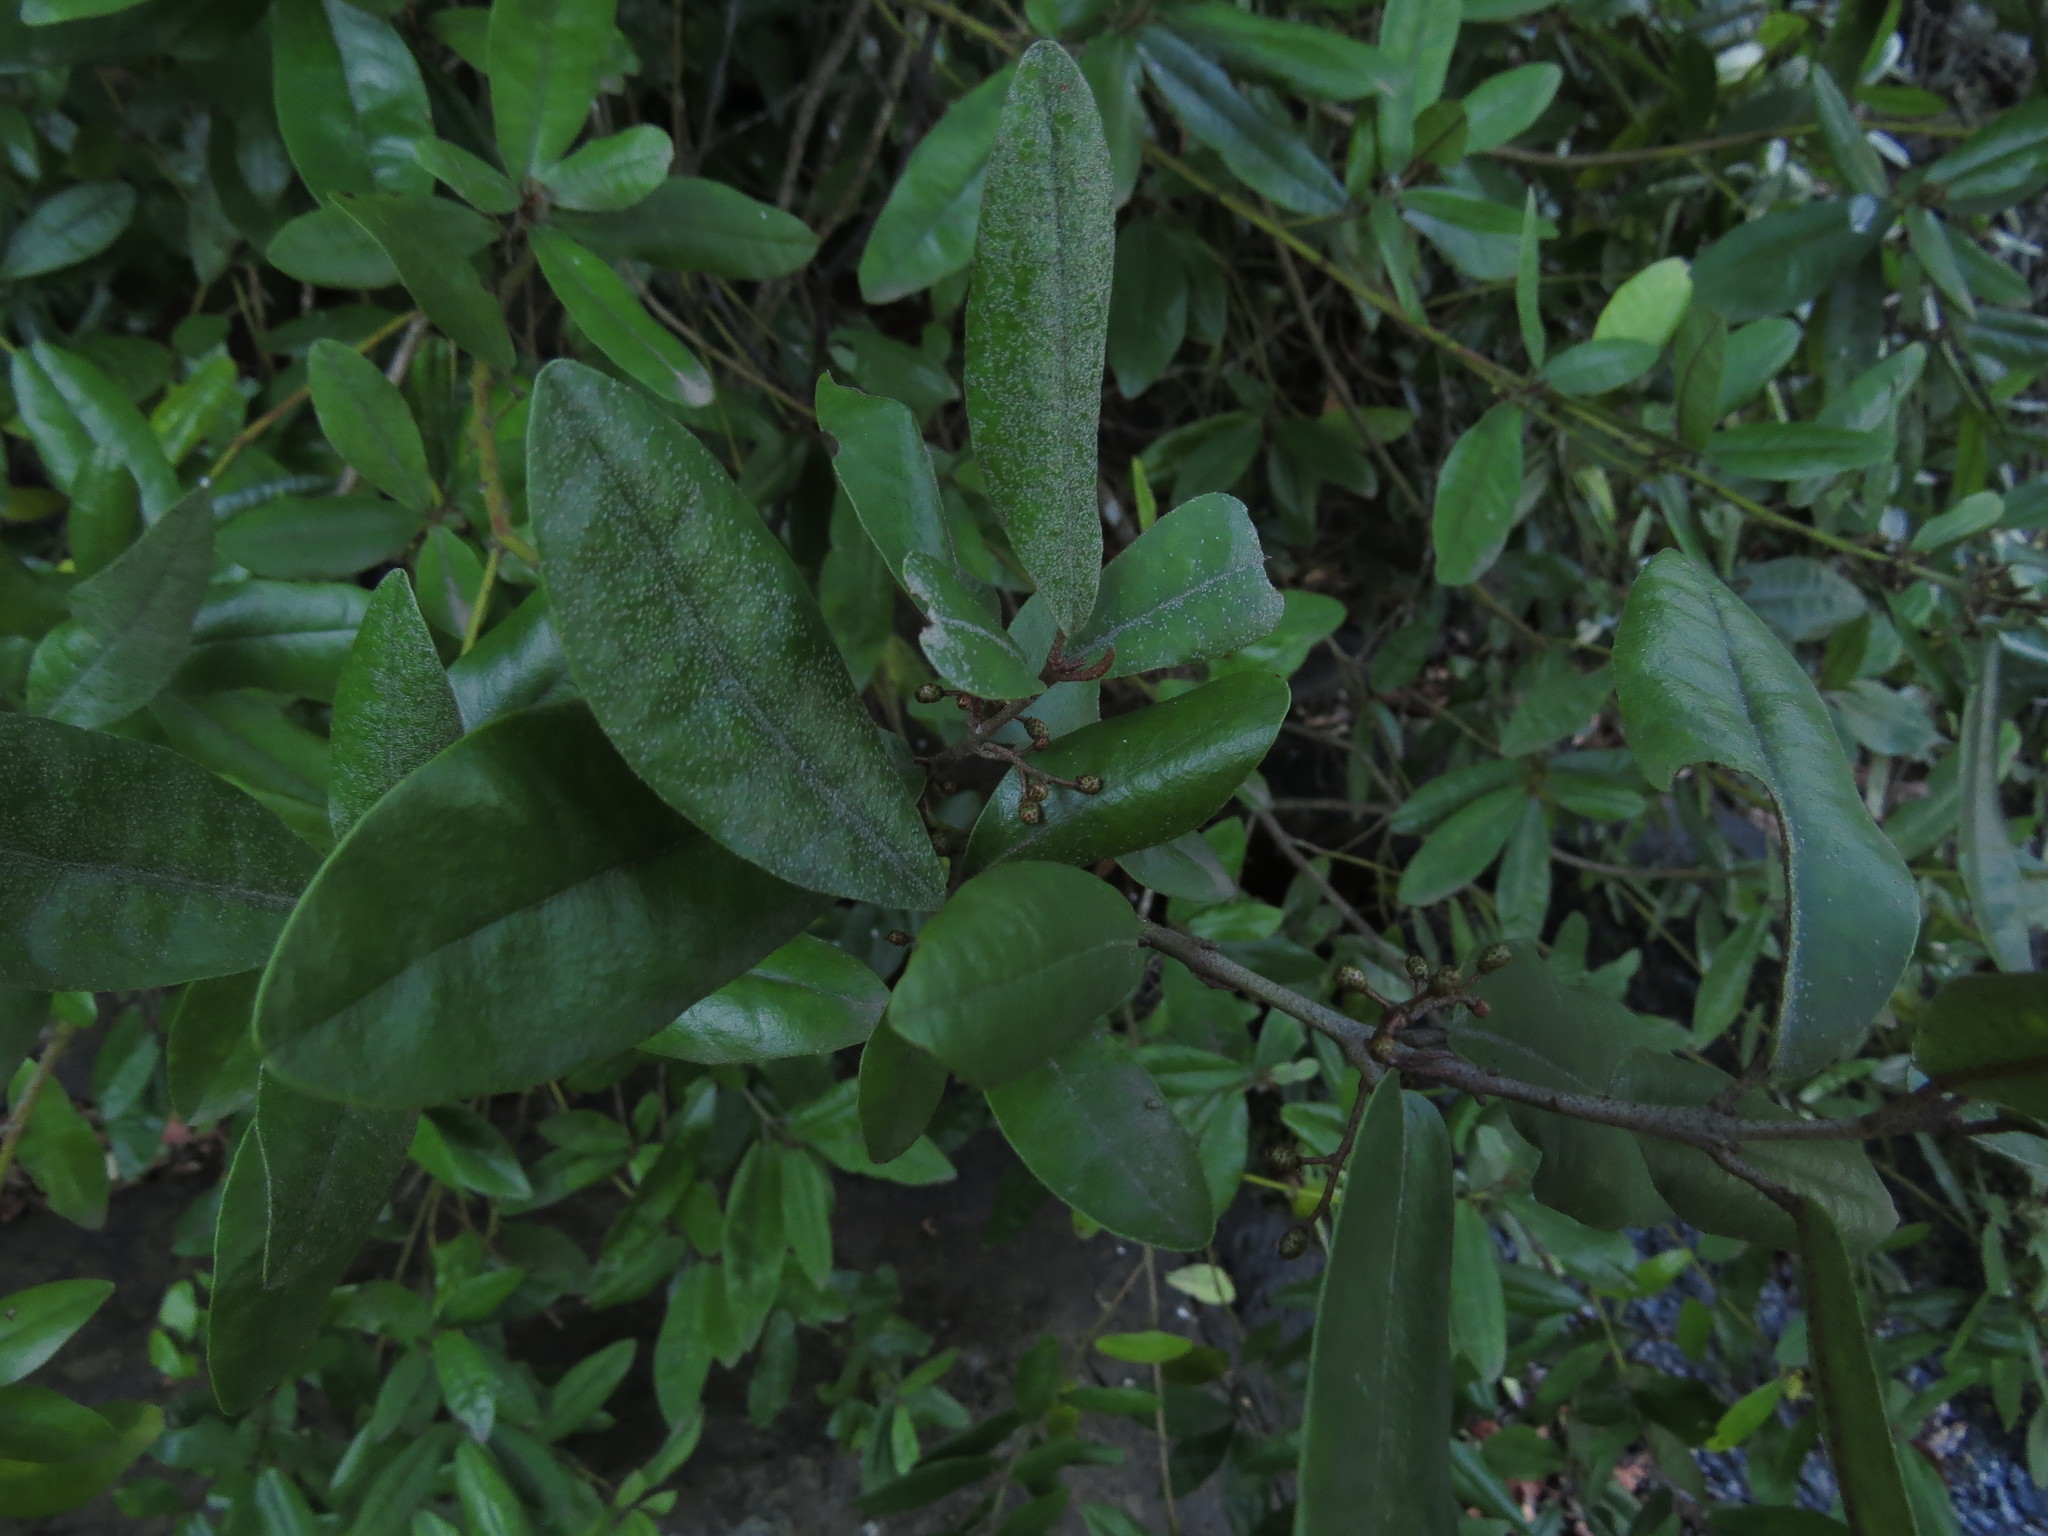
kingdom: Plantae
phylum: Tracheophyta
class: Magnoliopsida
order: Berberidopsidales
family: Aextoxicaceae
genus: Aextoxicon
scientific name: Aextoxicon punctatum
